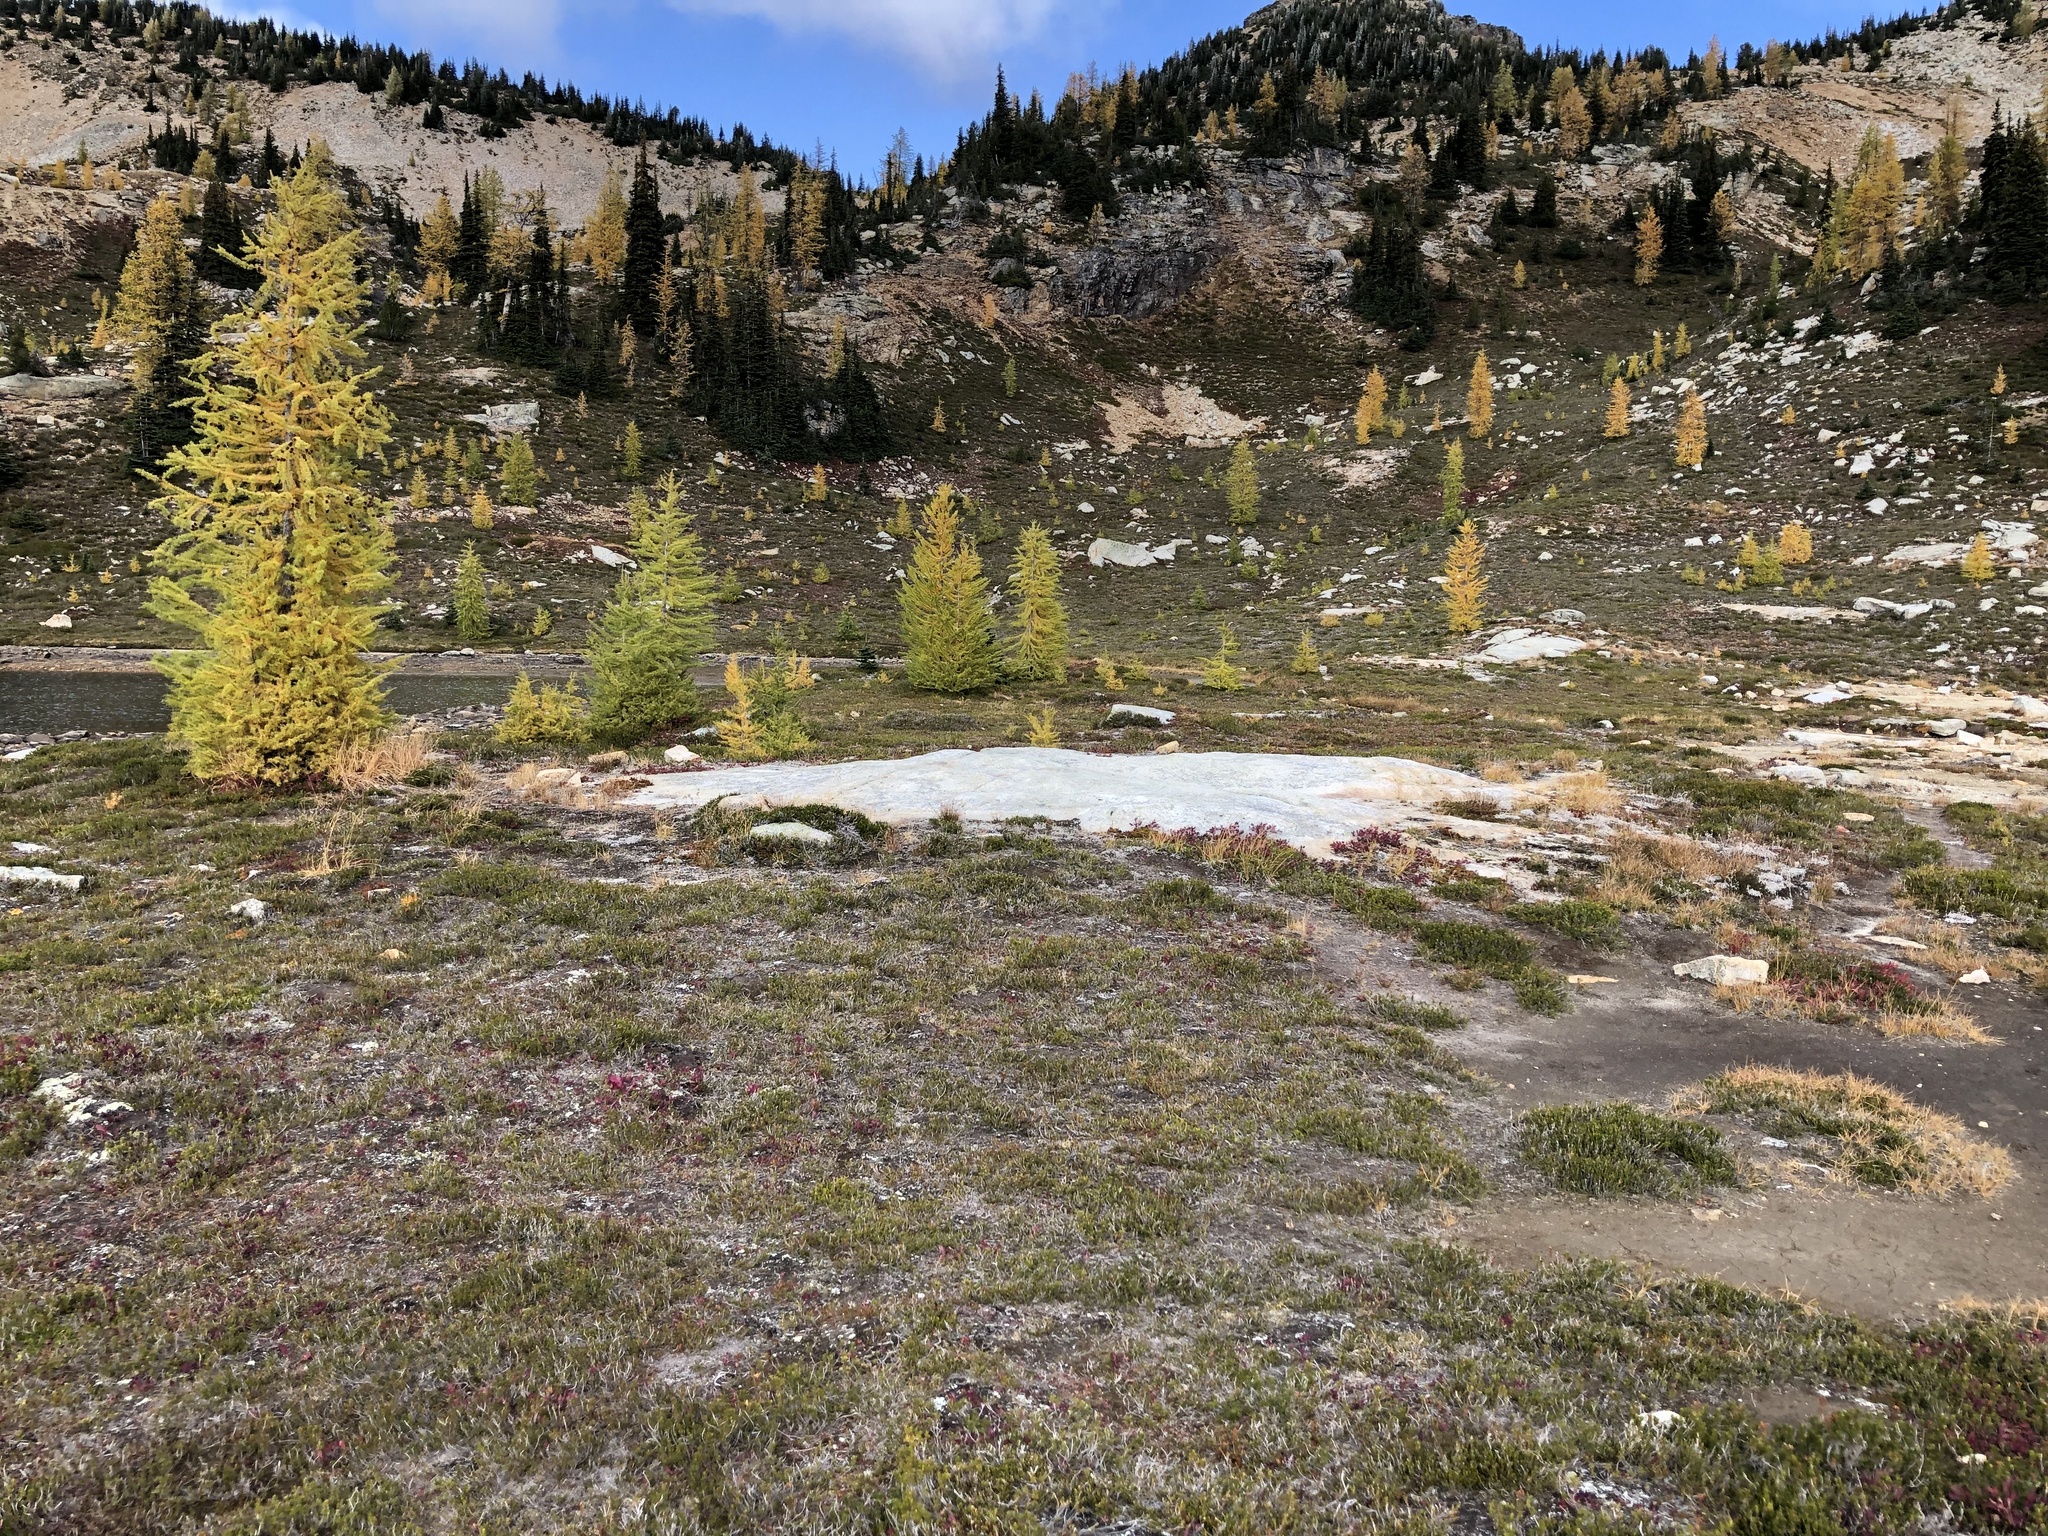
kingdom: Plantae
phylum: Tracheophyta
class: Pinopsida
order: Pinales
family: Pinaceae
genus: Larix
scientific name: Larix lyallii
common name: Alpine larch
